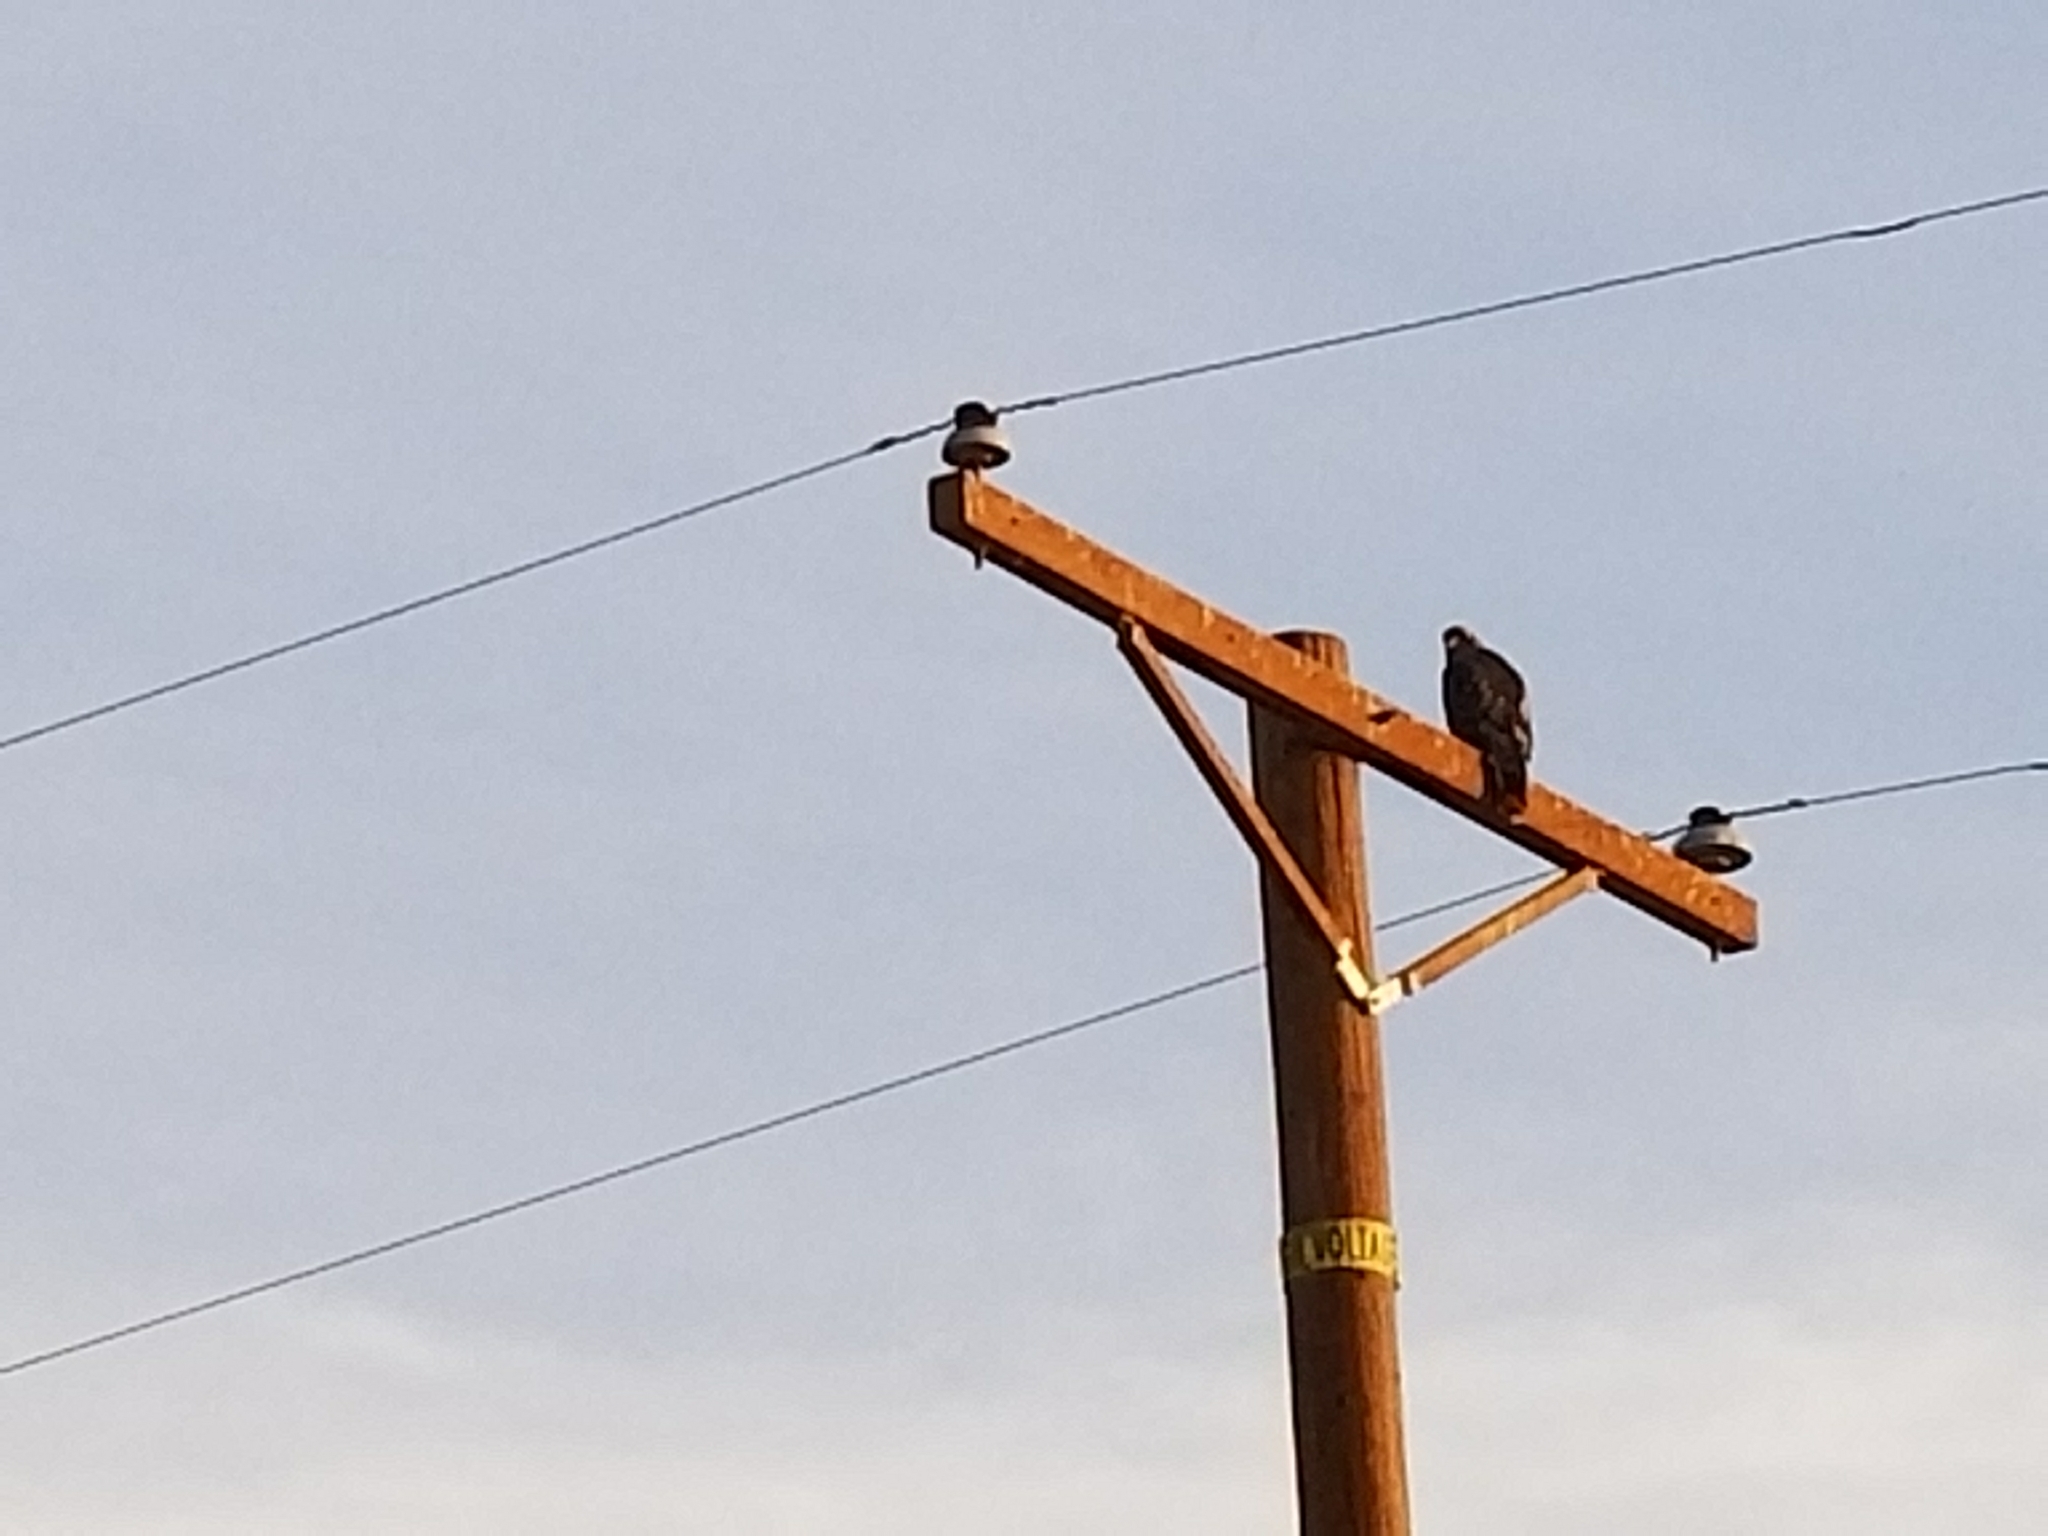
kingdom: Animalia
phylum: Chordata
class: Aves
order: Accipitriformes
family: Accipitridae
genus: Buteo
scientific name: Buteo jamaicensis
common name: Red-tailed hawk
